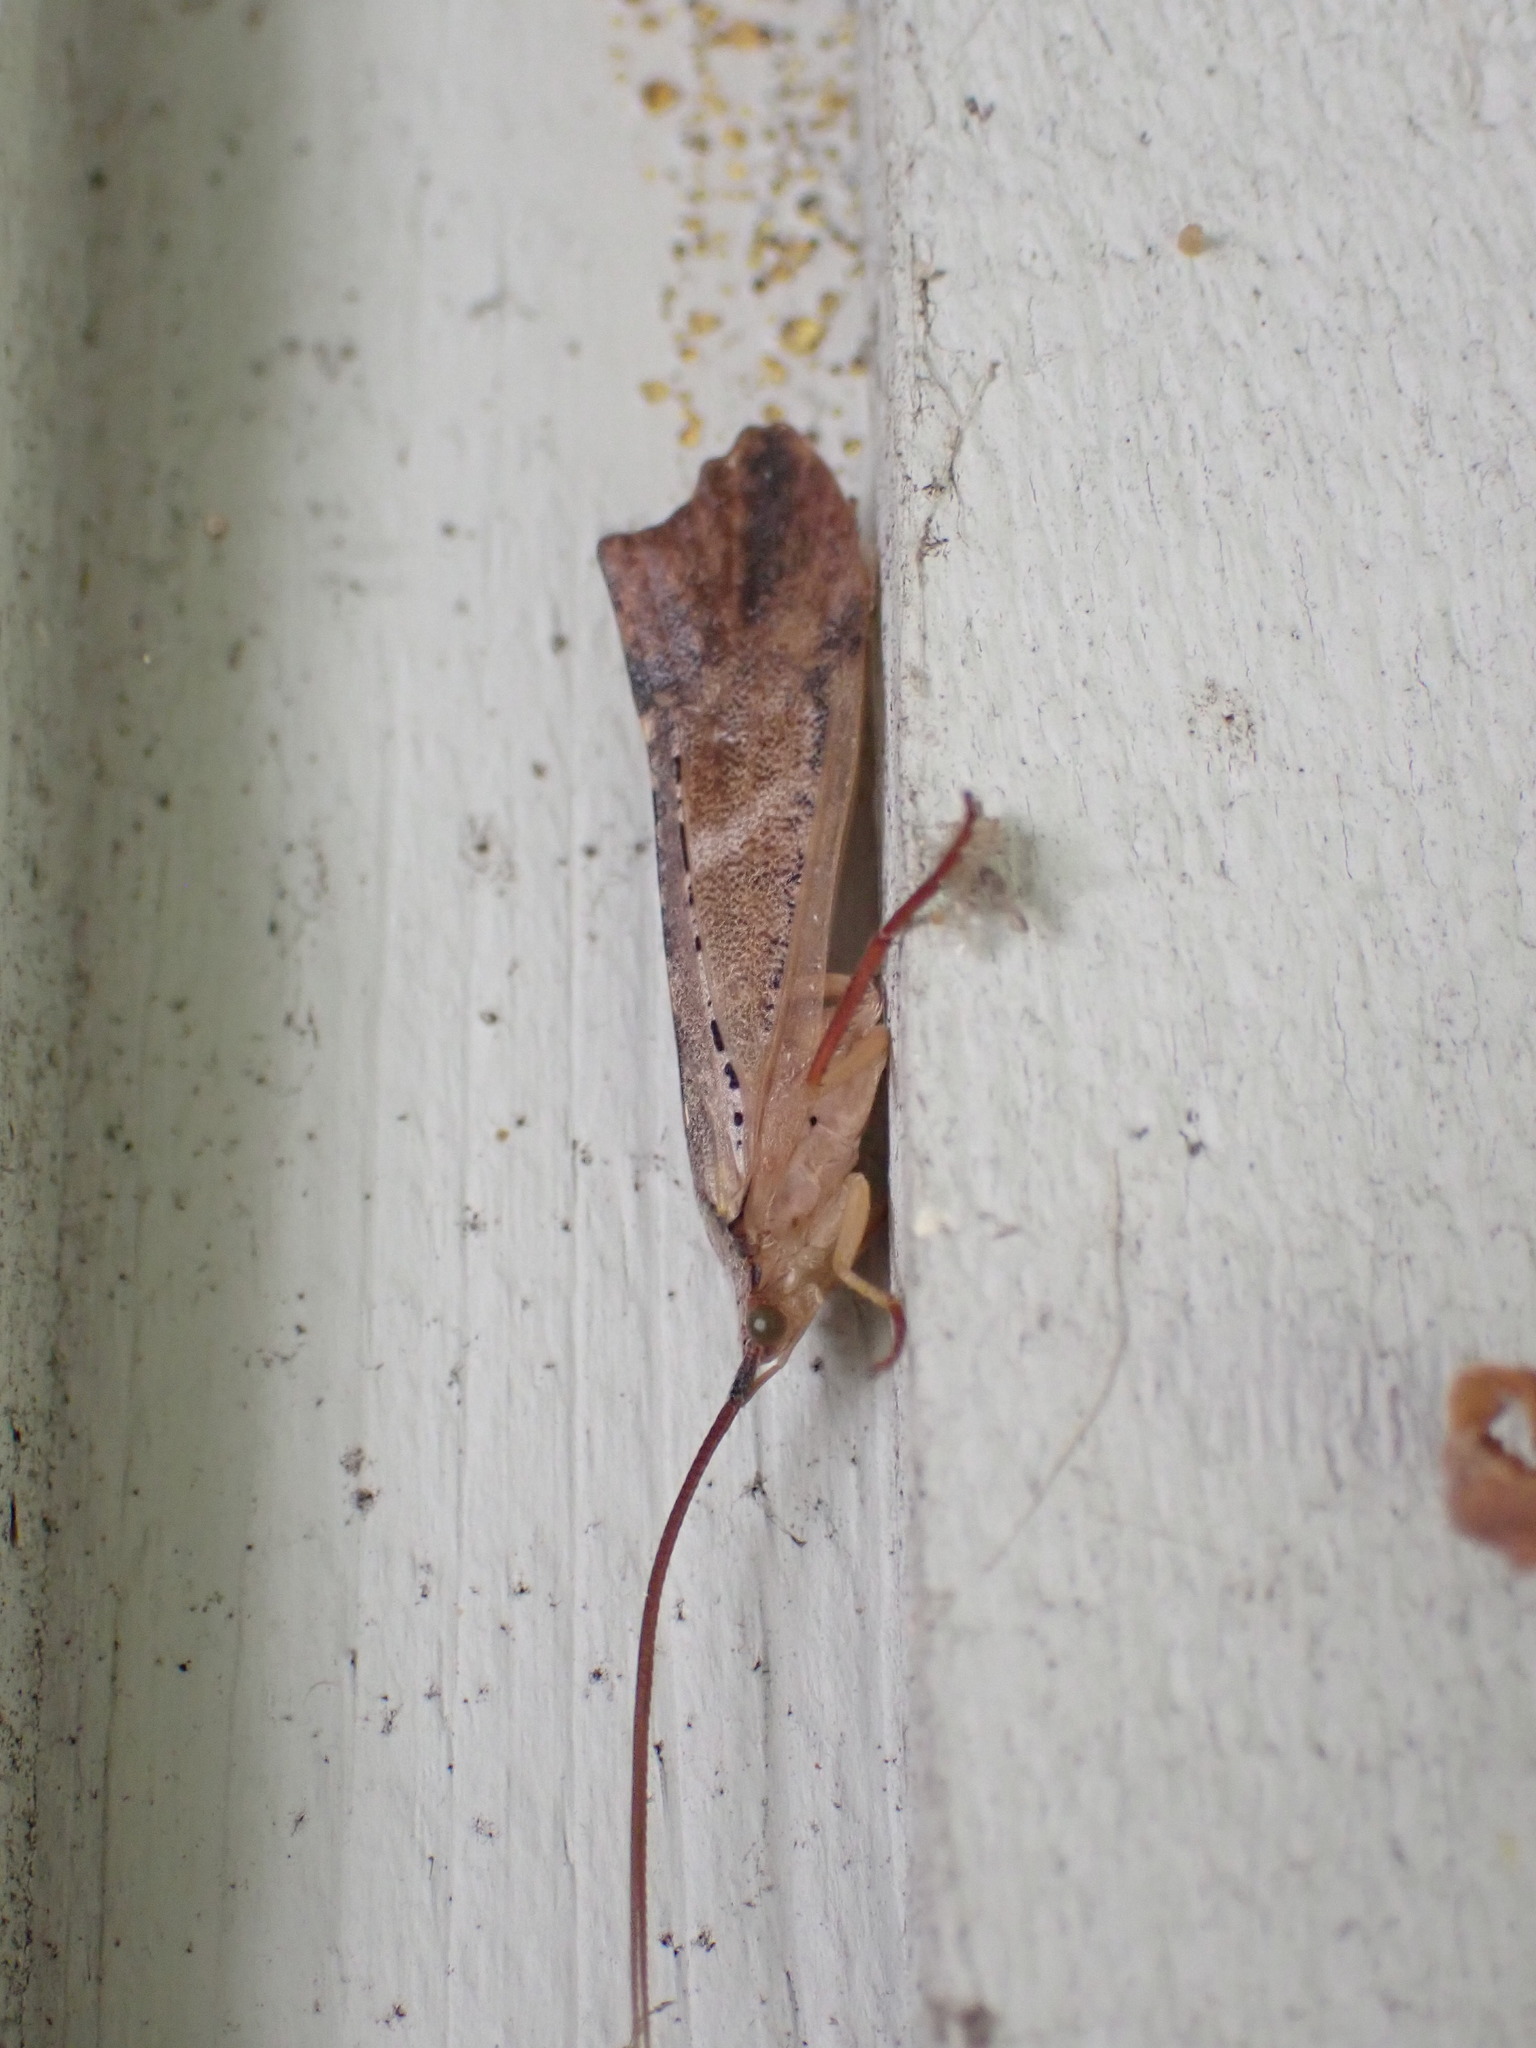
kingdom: Animalia
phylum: Arthropoda
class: Insecta
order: Trichoptera
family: Limnephilidae
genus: Nemotaulius
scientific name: Nemotaulius hostilis
